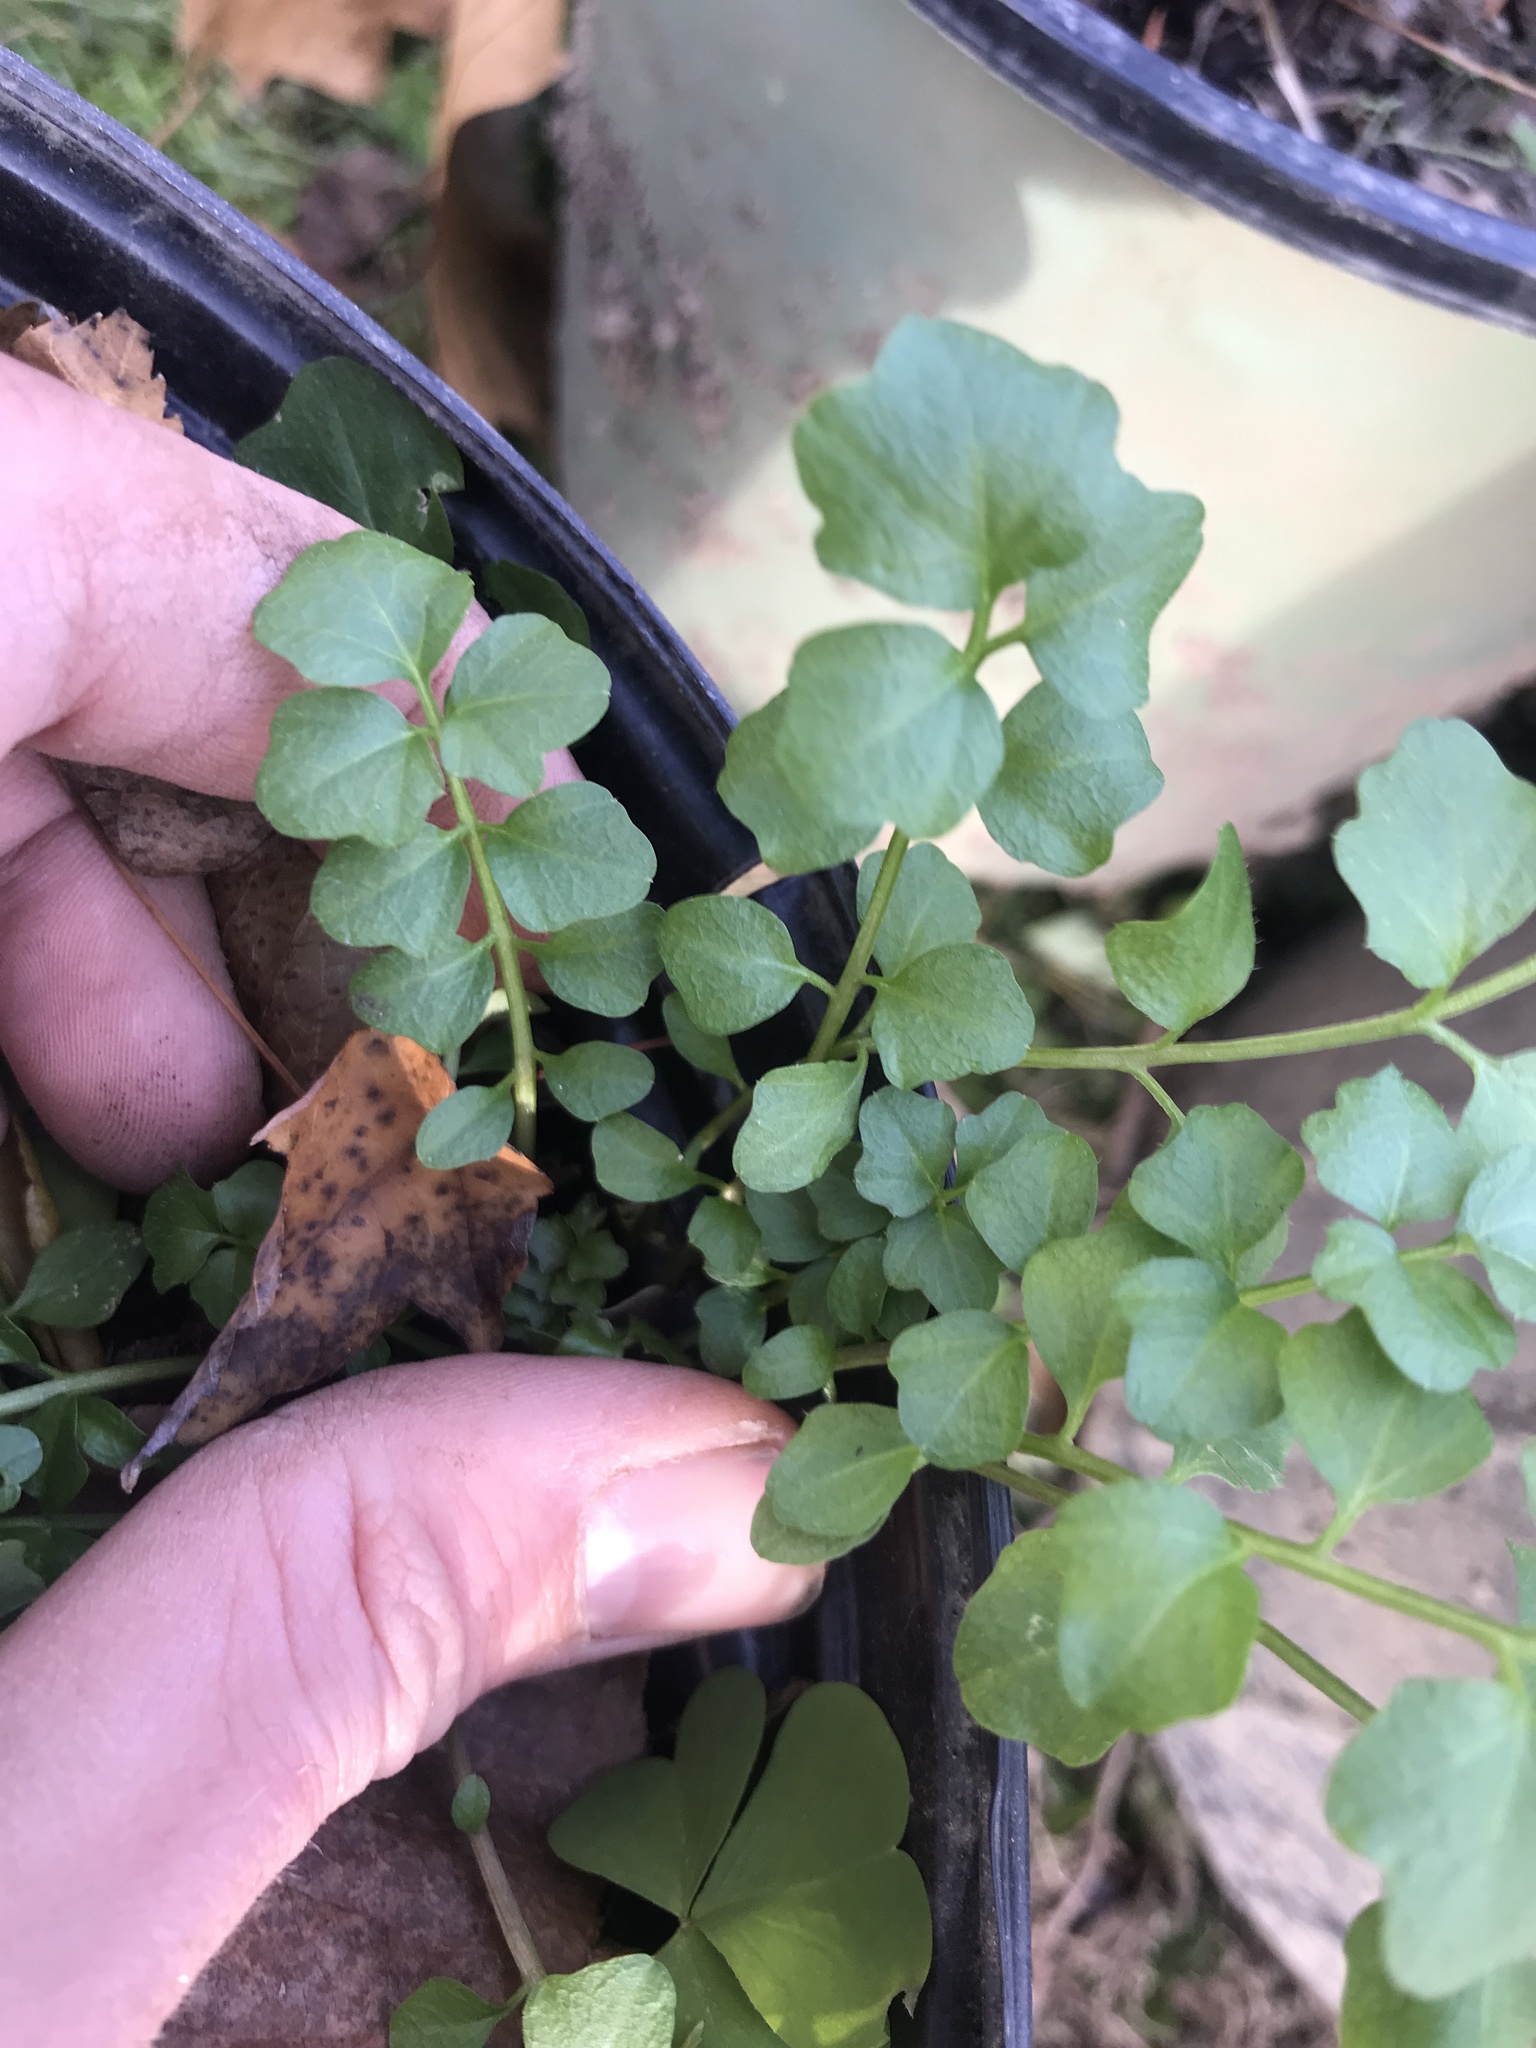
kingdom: Plantae
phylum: Tracheophyta
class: Magnoliopsida
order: Brassicales
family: Brassicaceae
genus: Cardamine
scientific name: Cardamine hirsuta
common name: Hairy bittercress
